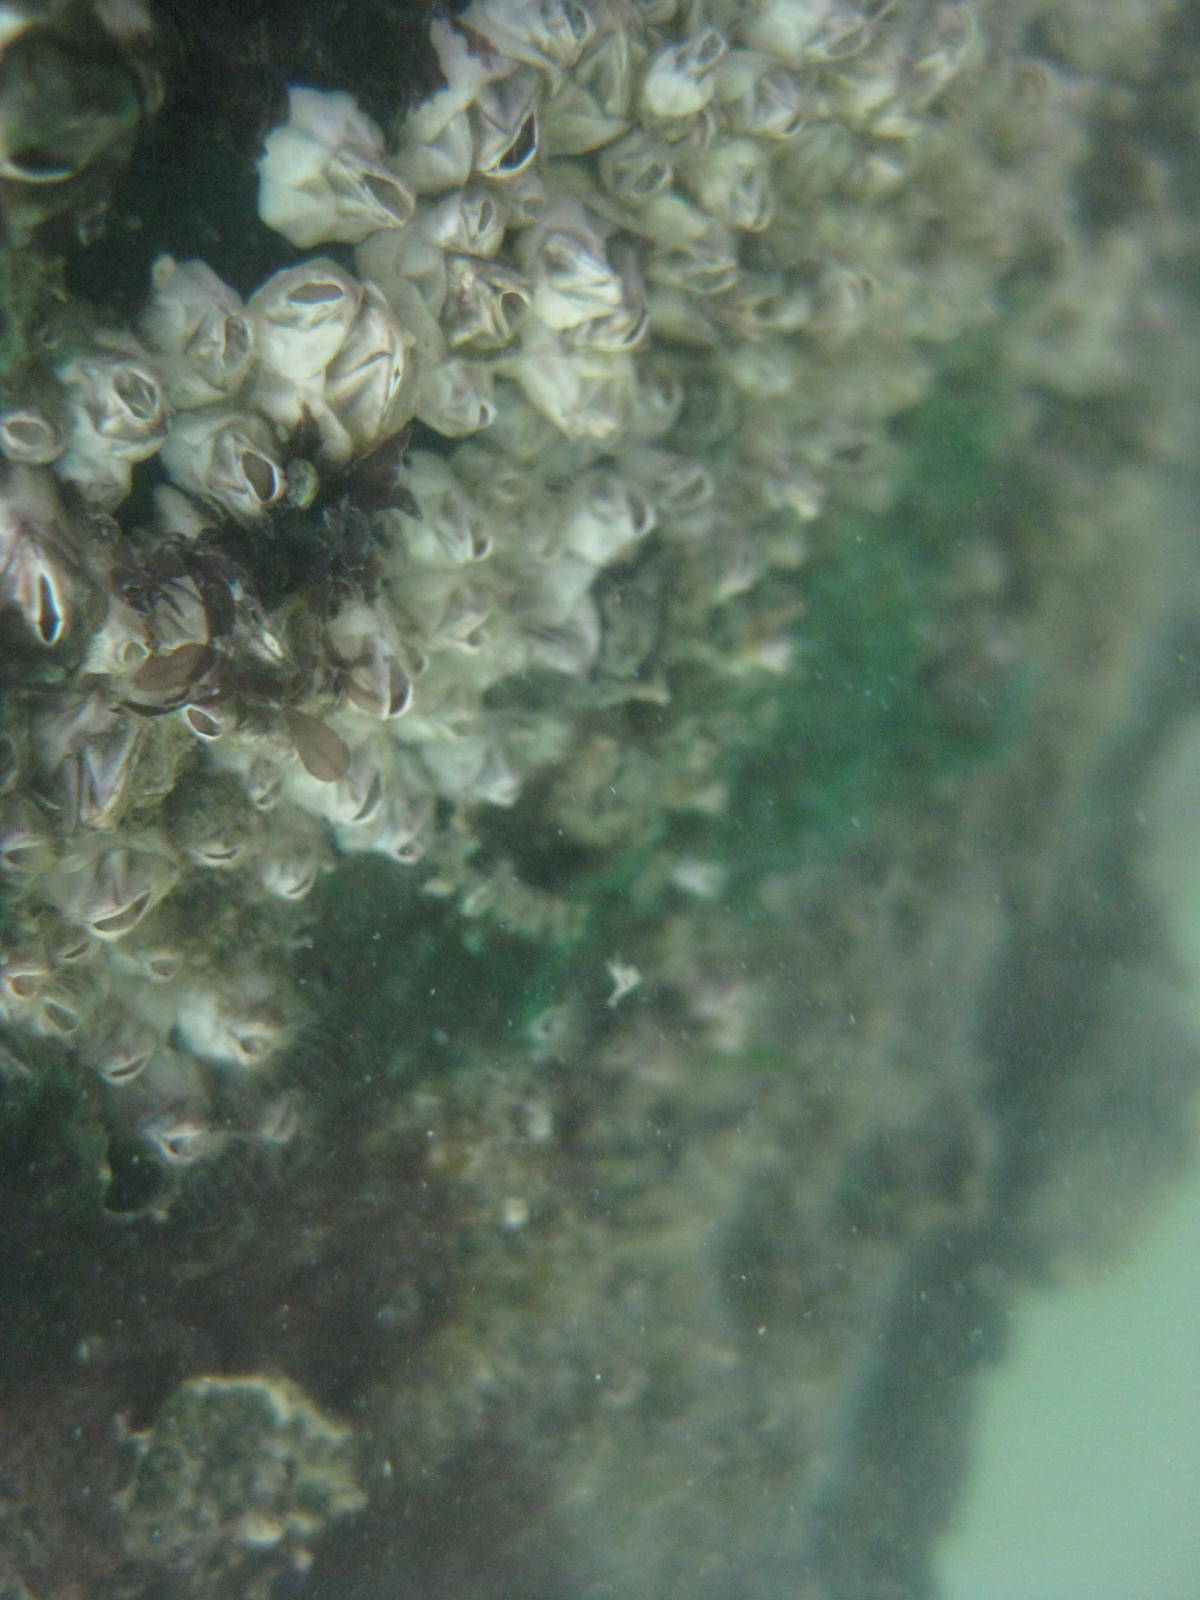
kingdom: Animalia
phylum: Arthropoda
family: Elminiidae
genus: Austrominius
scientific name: Austrominius modestus
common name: Australasian barnacle
